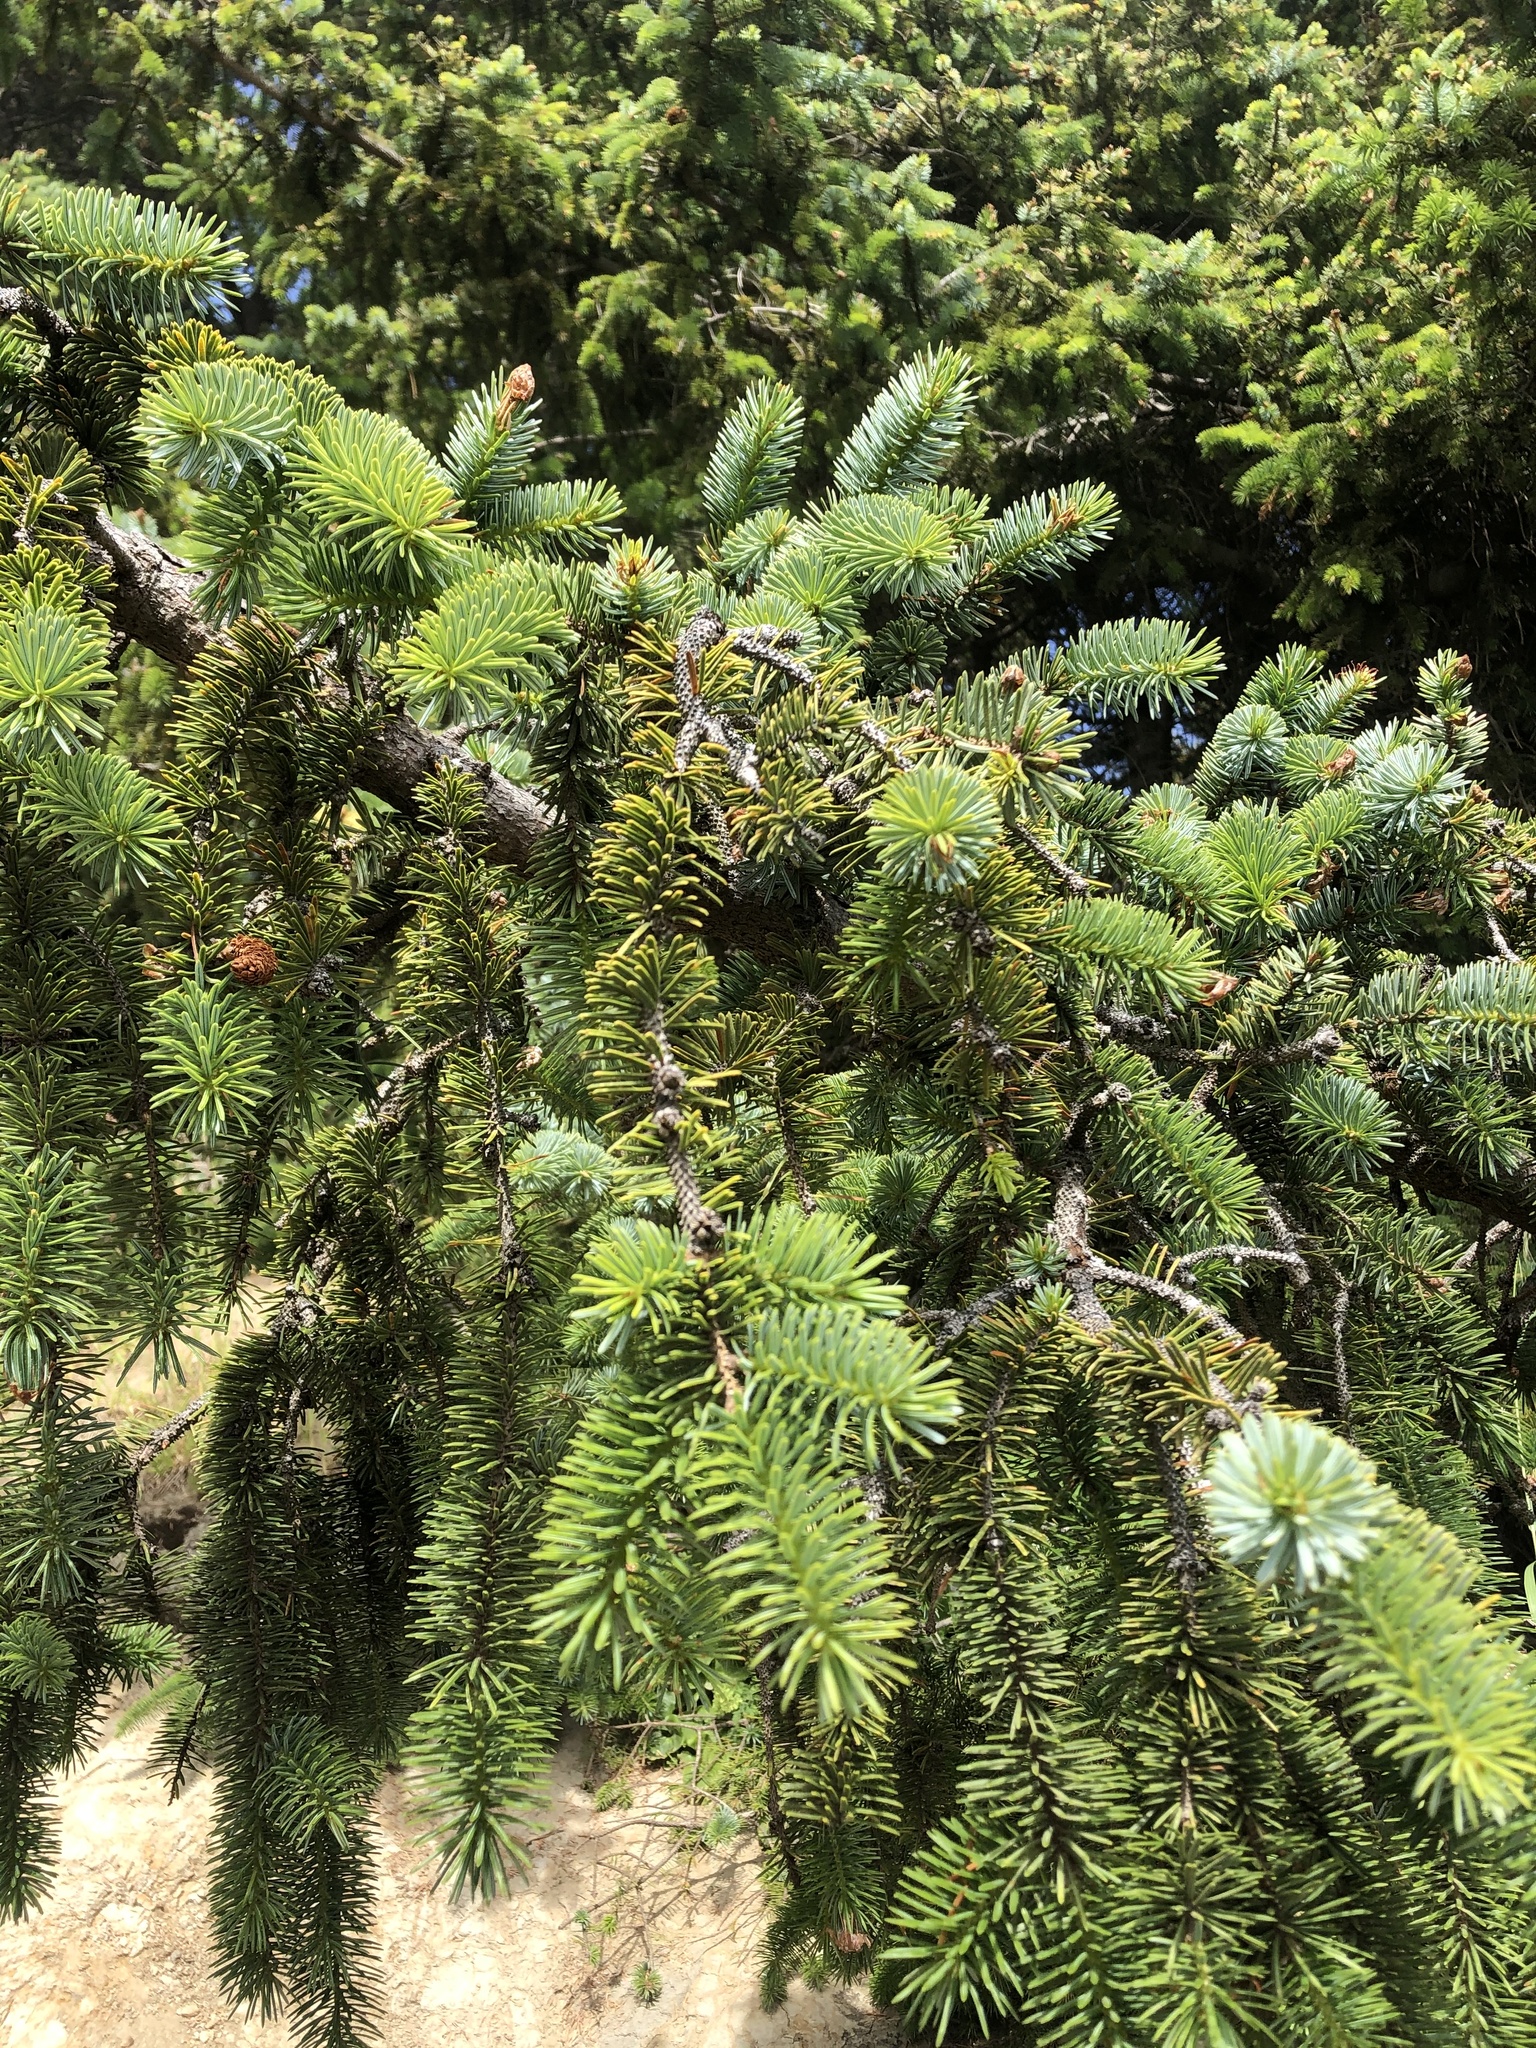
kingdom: Plantae
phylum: Tracheophyta
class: Pinopsida
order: Pinales
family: Pinaceae
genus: Picea
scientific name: Picea sitchensis
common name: Sitka spruce
